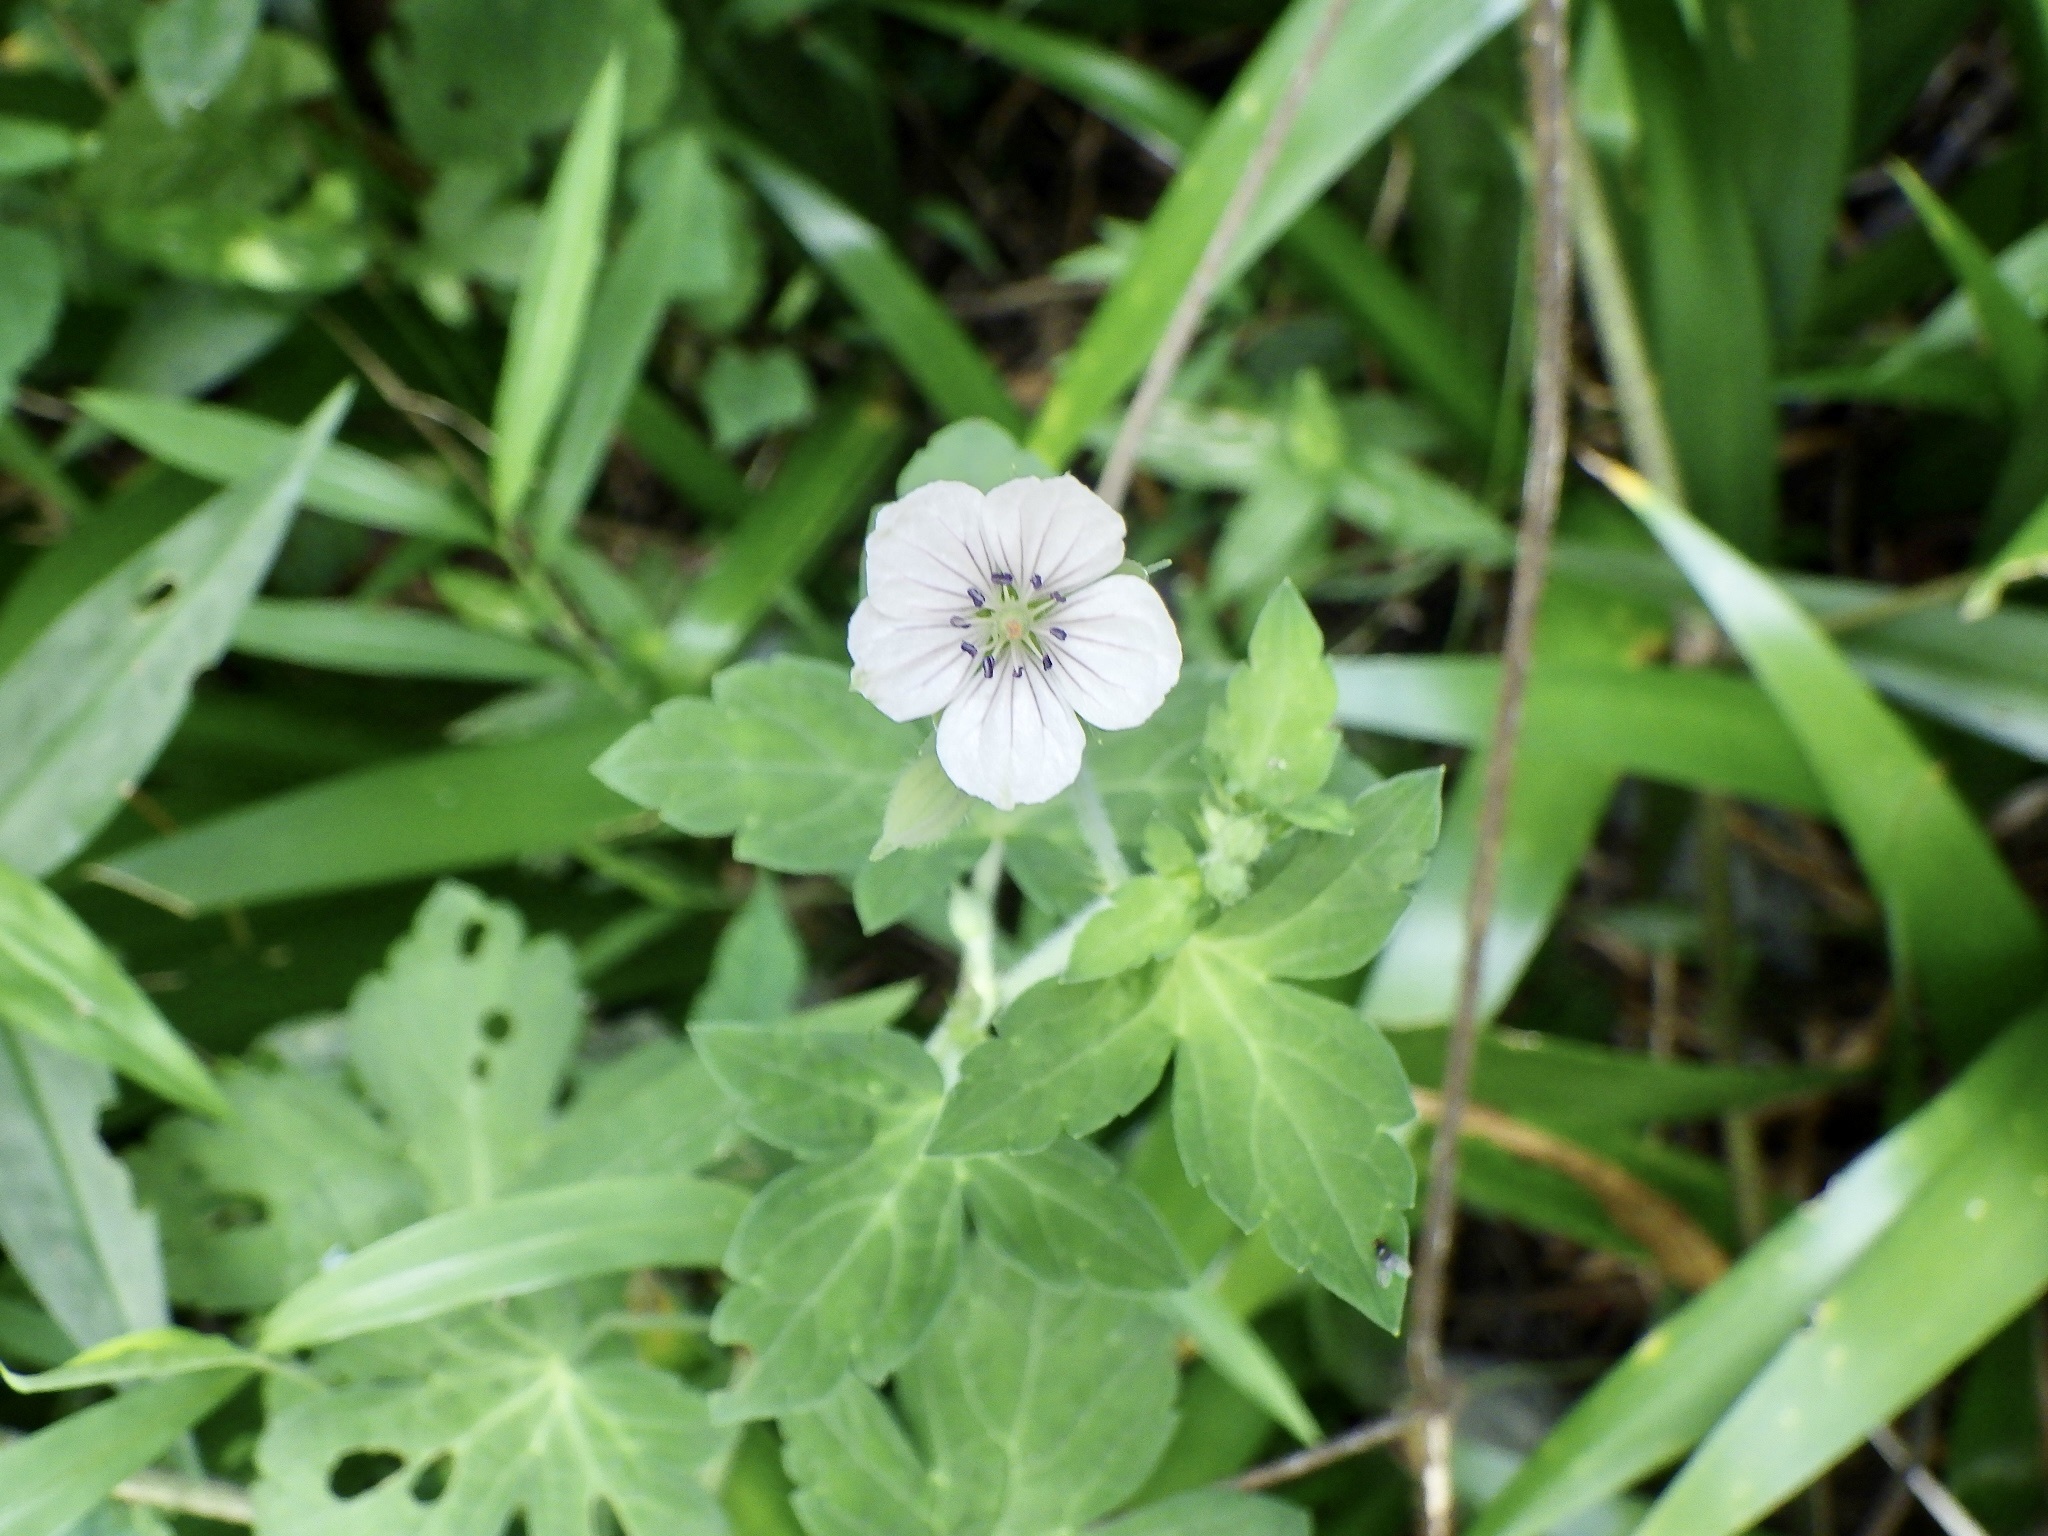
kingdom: Plantae
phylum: Tracheophyta
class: Magnoliopsida
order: Geraniales
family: Geraniaceae
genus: Geranium
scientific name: Geranium thunbergii
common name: Dewdrop crane's-bill
